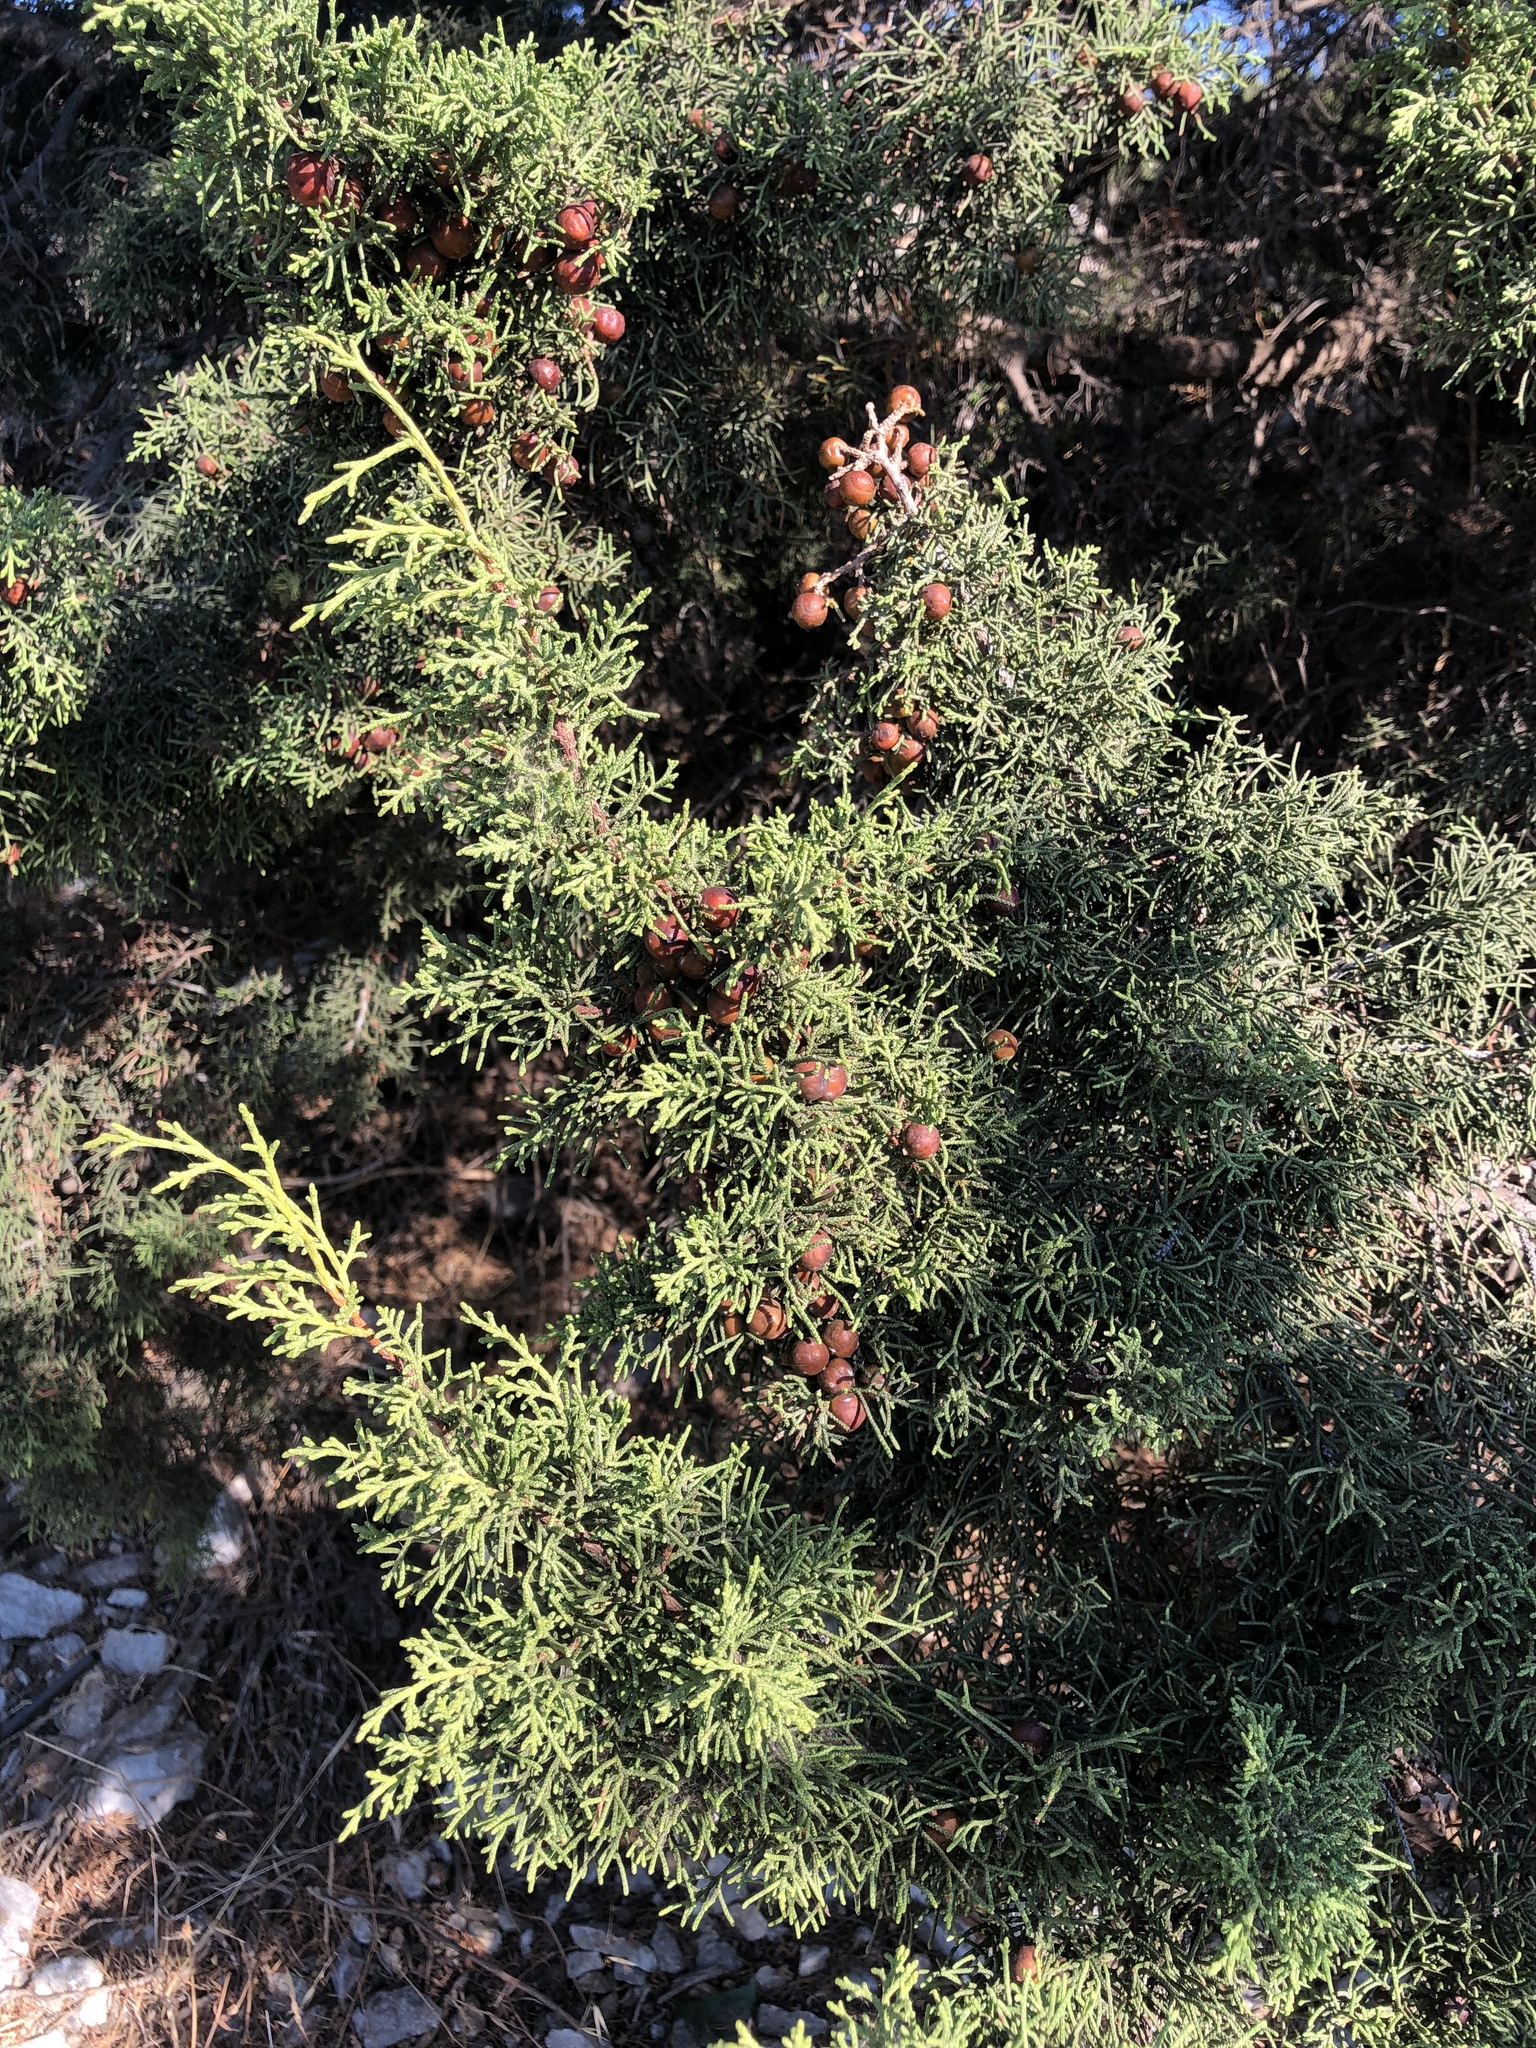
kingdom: Plantae
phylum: Tracheophyta
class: Pinopsida
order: Pinales
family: Cupressaceae
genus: Juniperus
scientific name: Juniperus phoenicea
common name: Phoenician juniper
